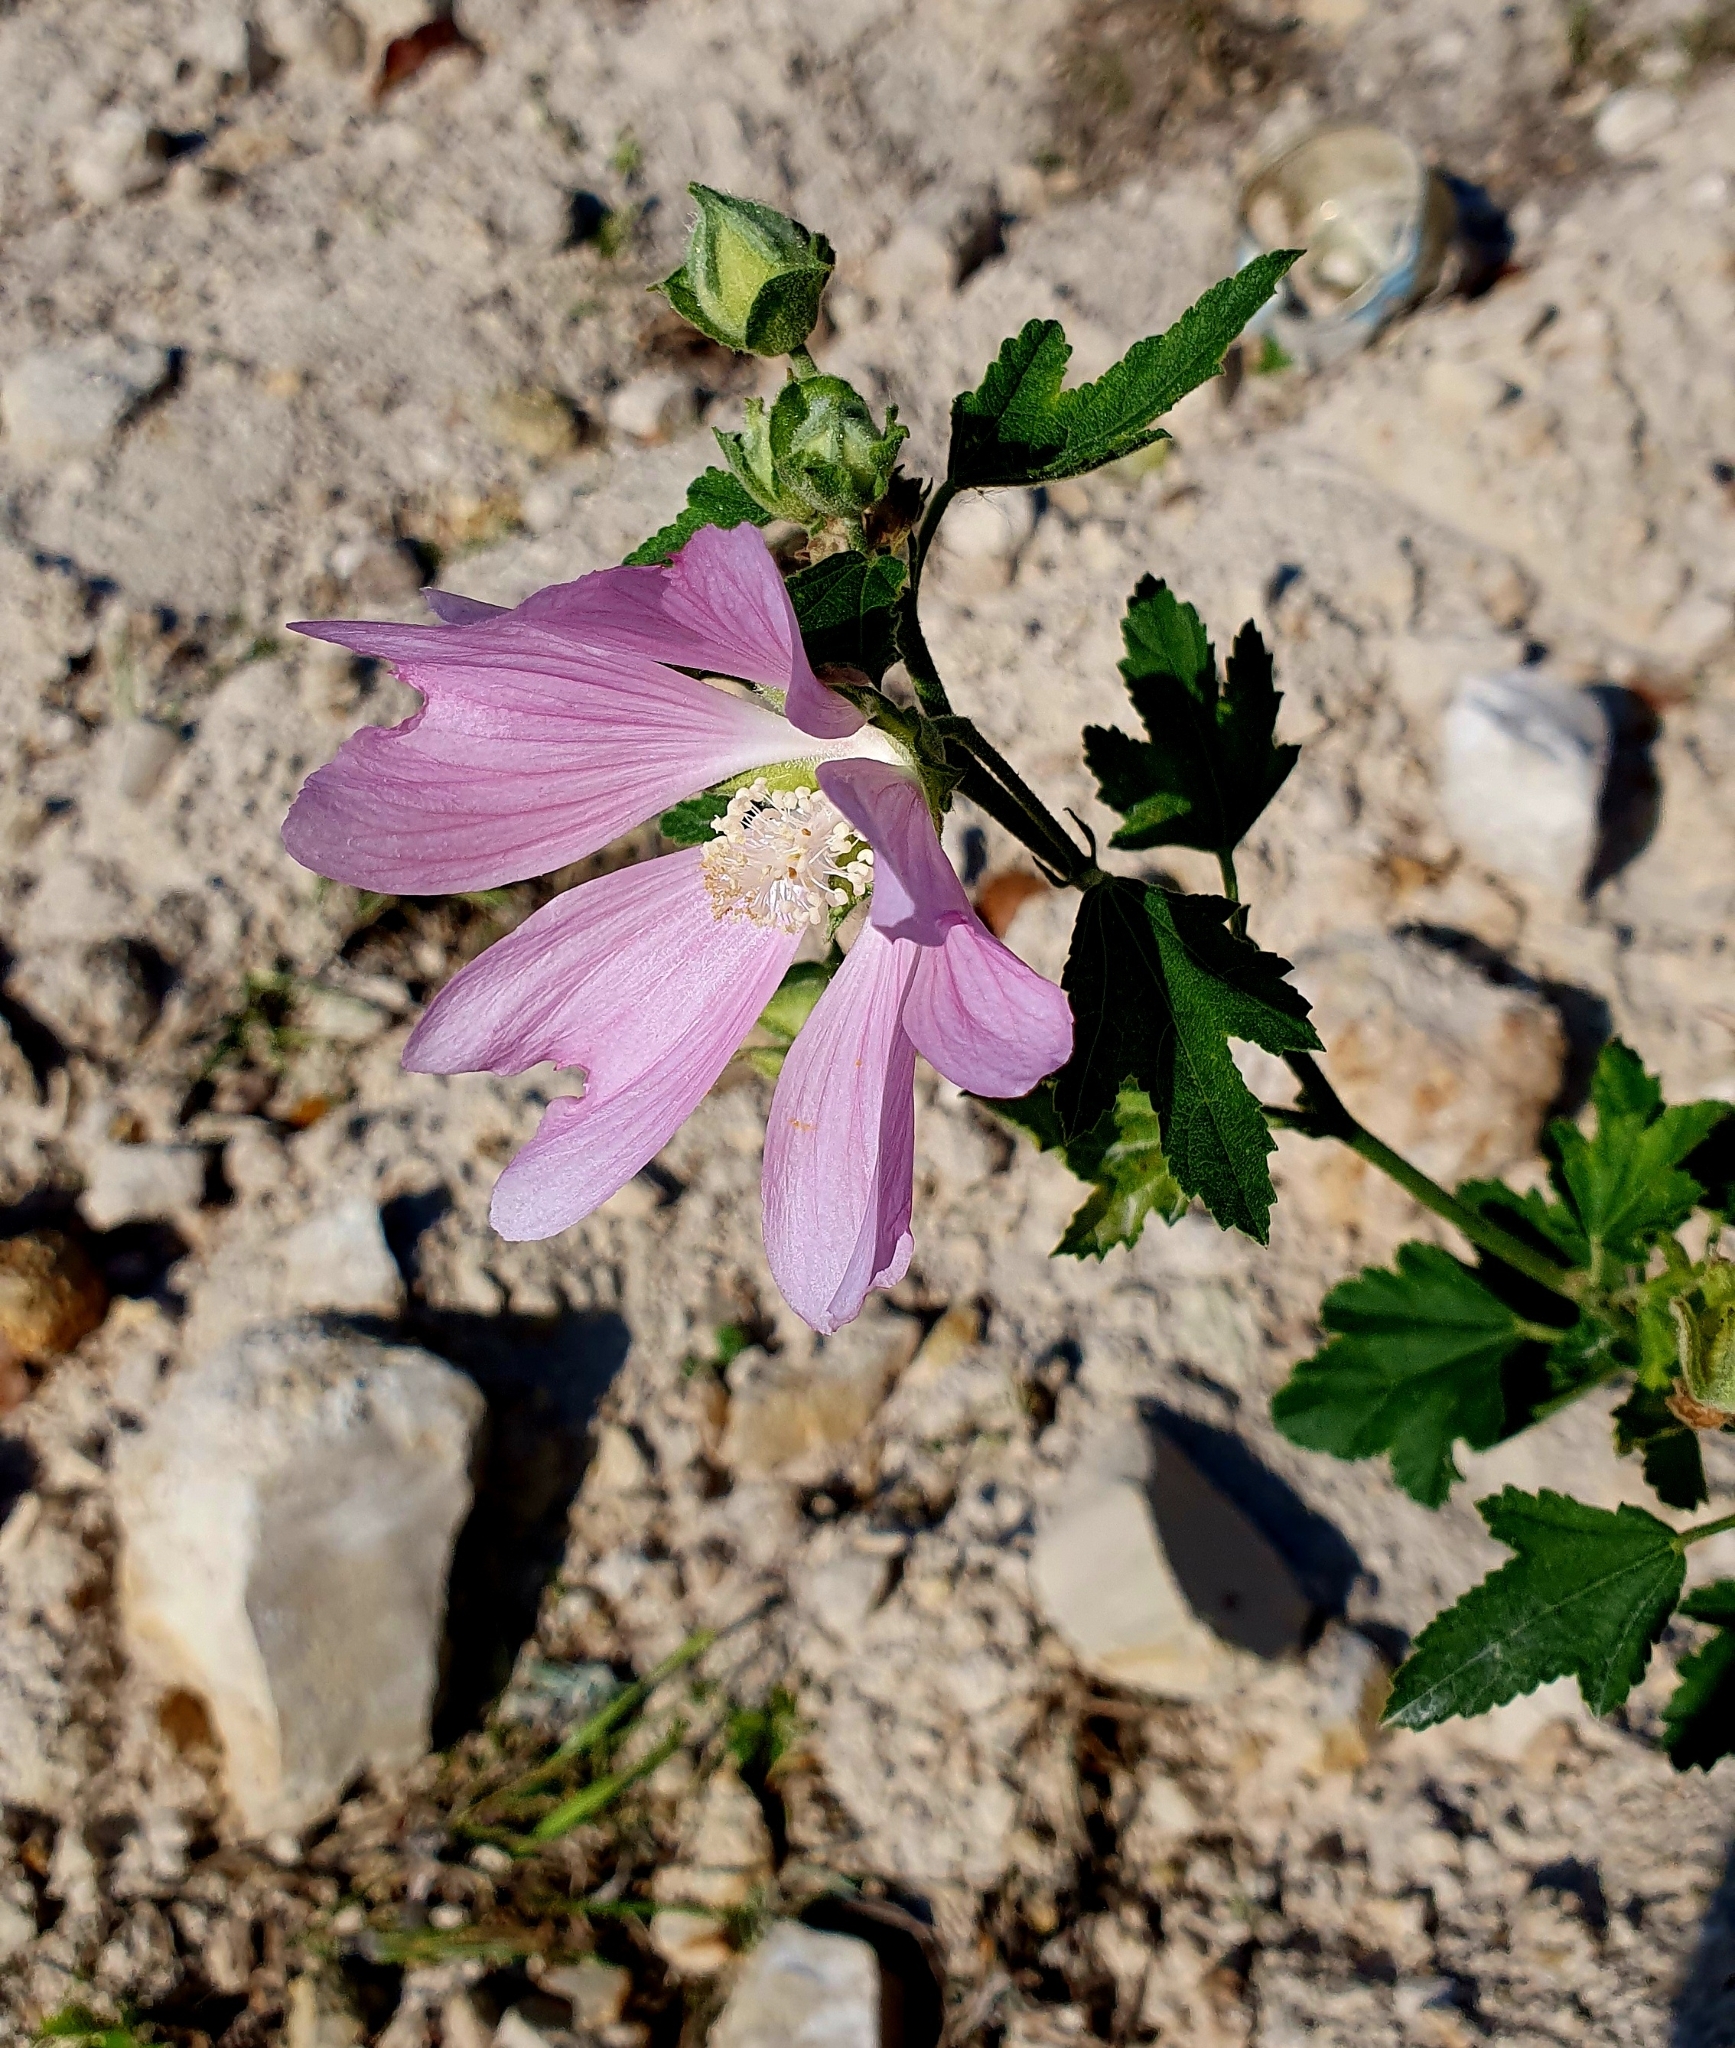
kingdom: Plantae
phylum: Tracheophyta
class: Magnoliopsida
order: Malvales
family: Malvaceae
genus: Malva
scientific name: Malva thuringiaca
